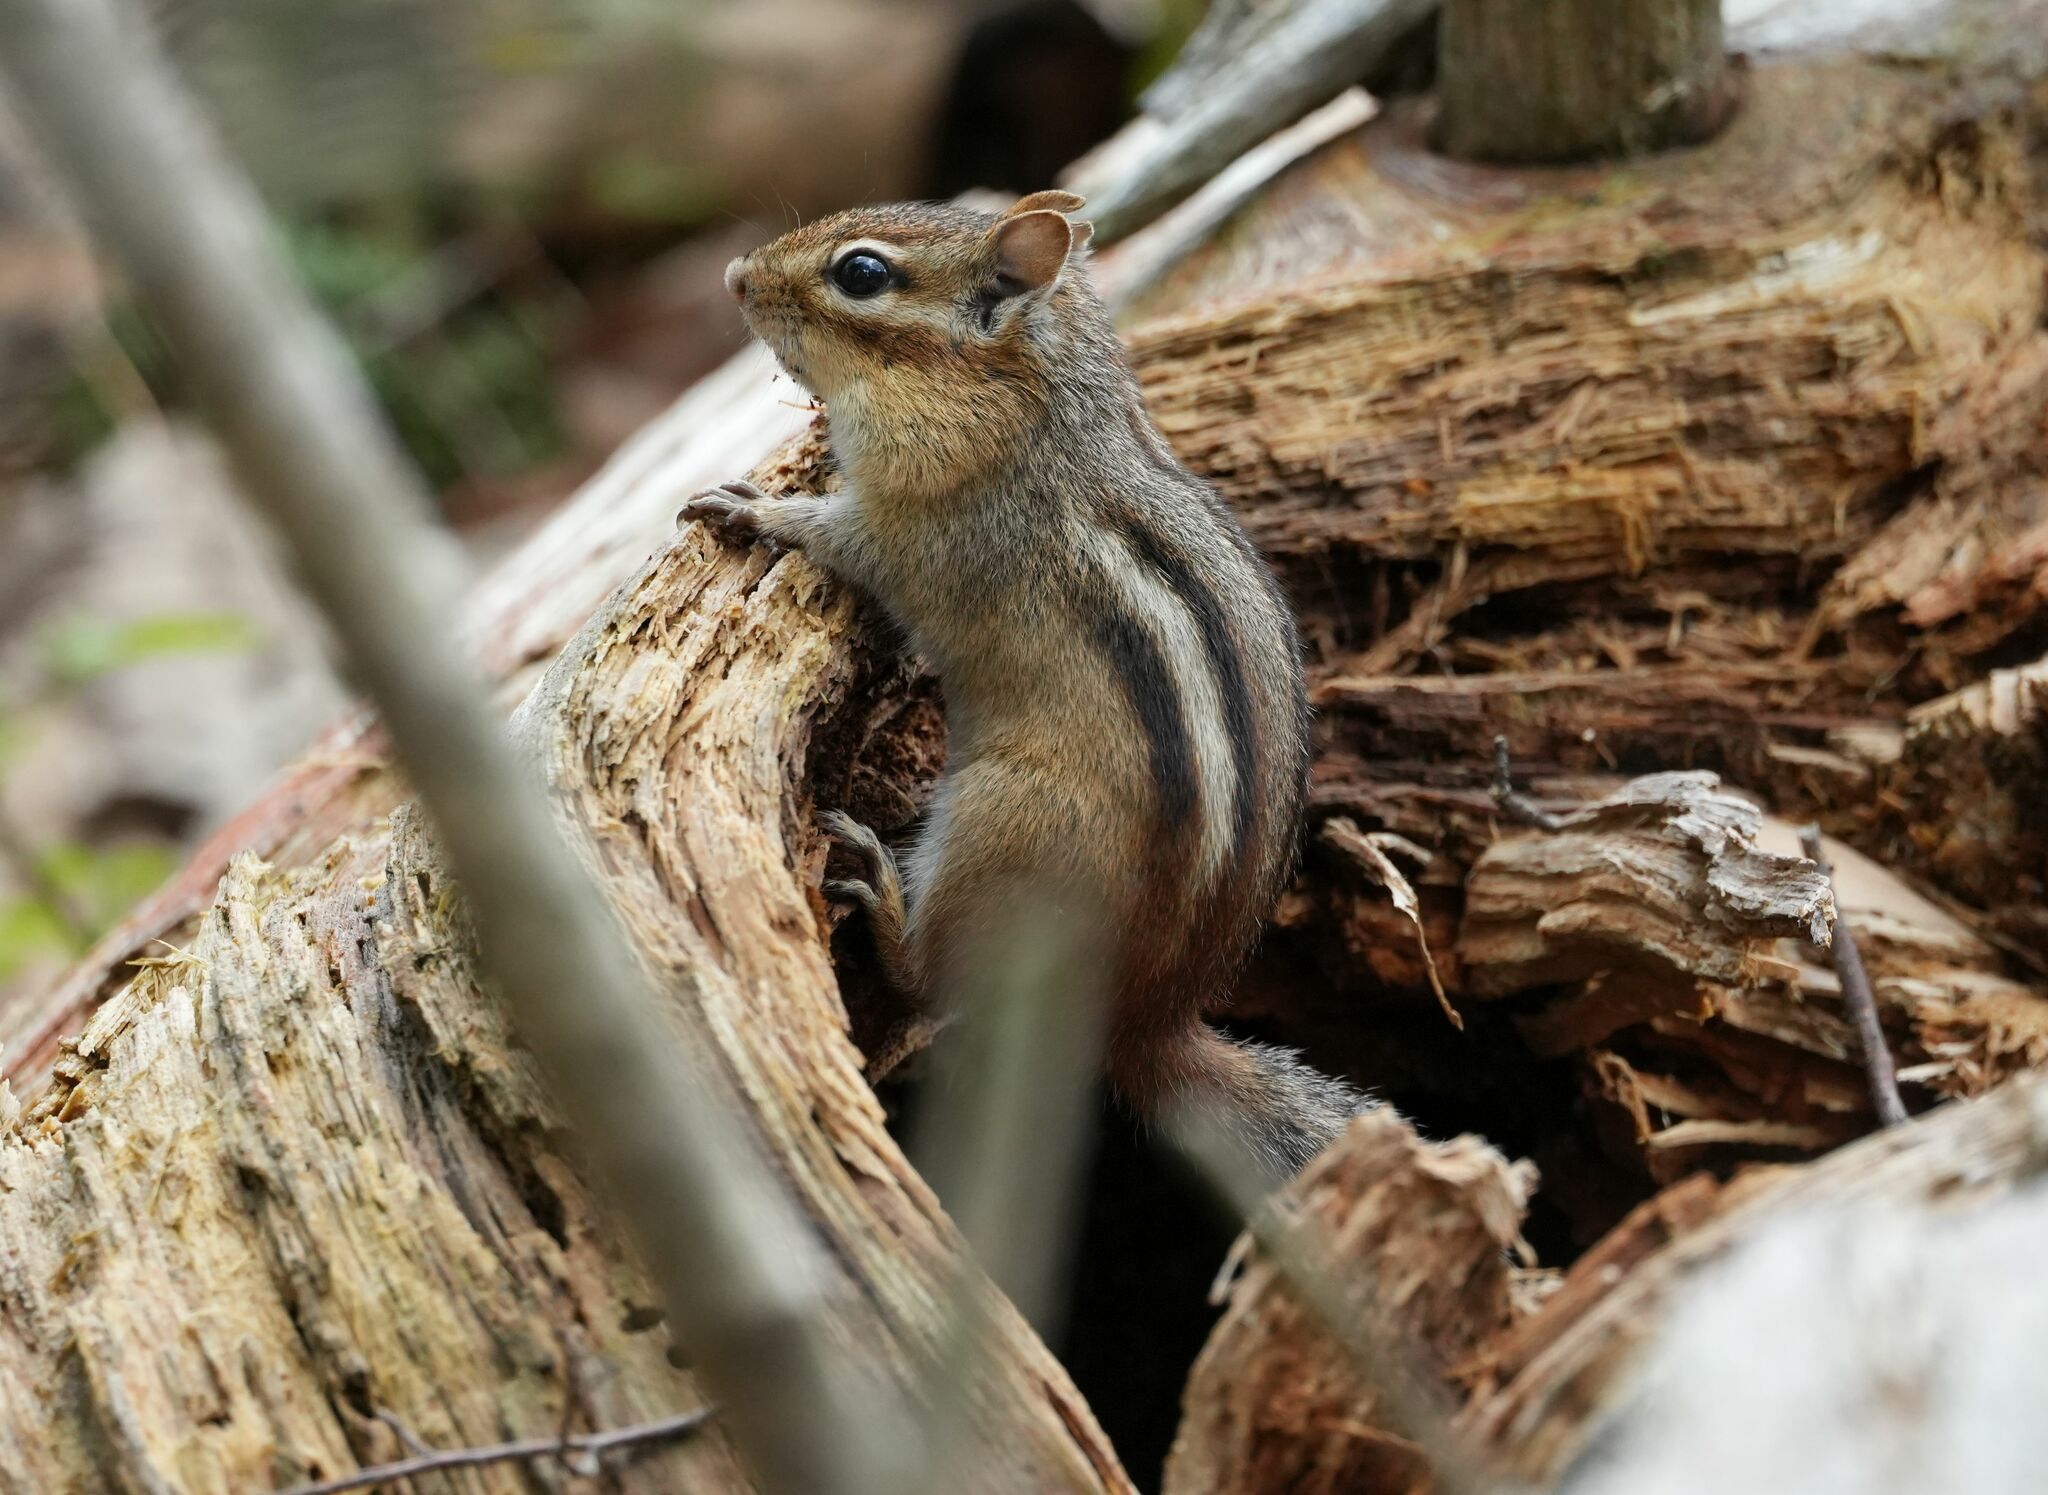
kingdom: Animalia
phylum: Chordata
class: Mammalia
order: Rodentia
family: Sciuridae
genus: Tamias
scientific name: Tamias striatus
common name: Eastern chipmunk
